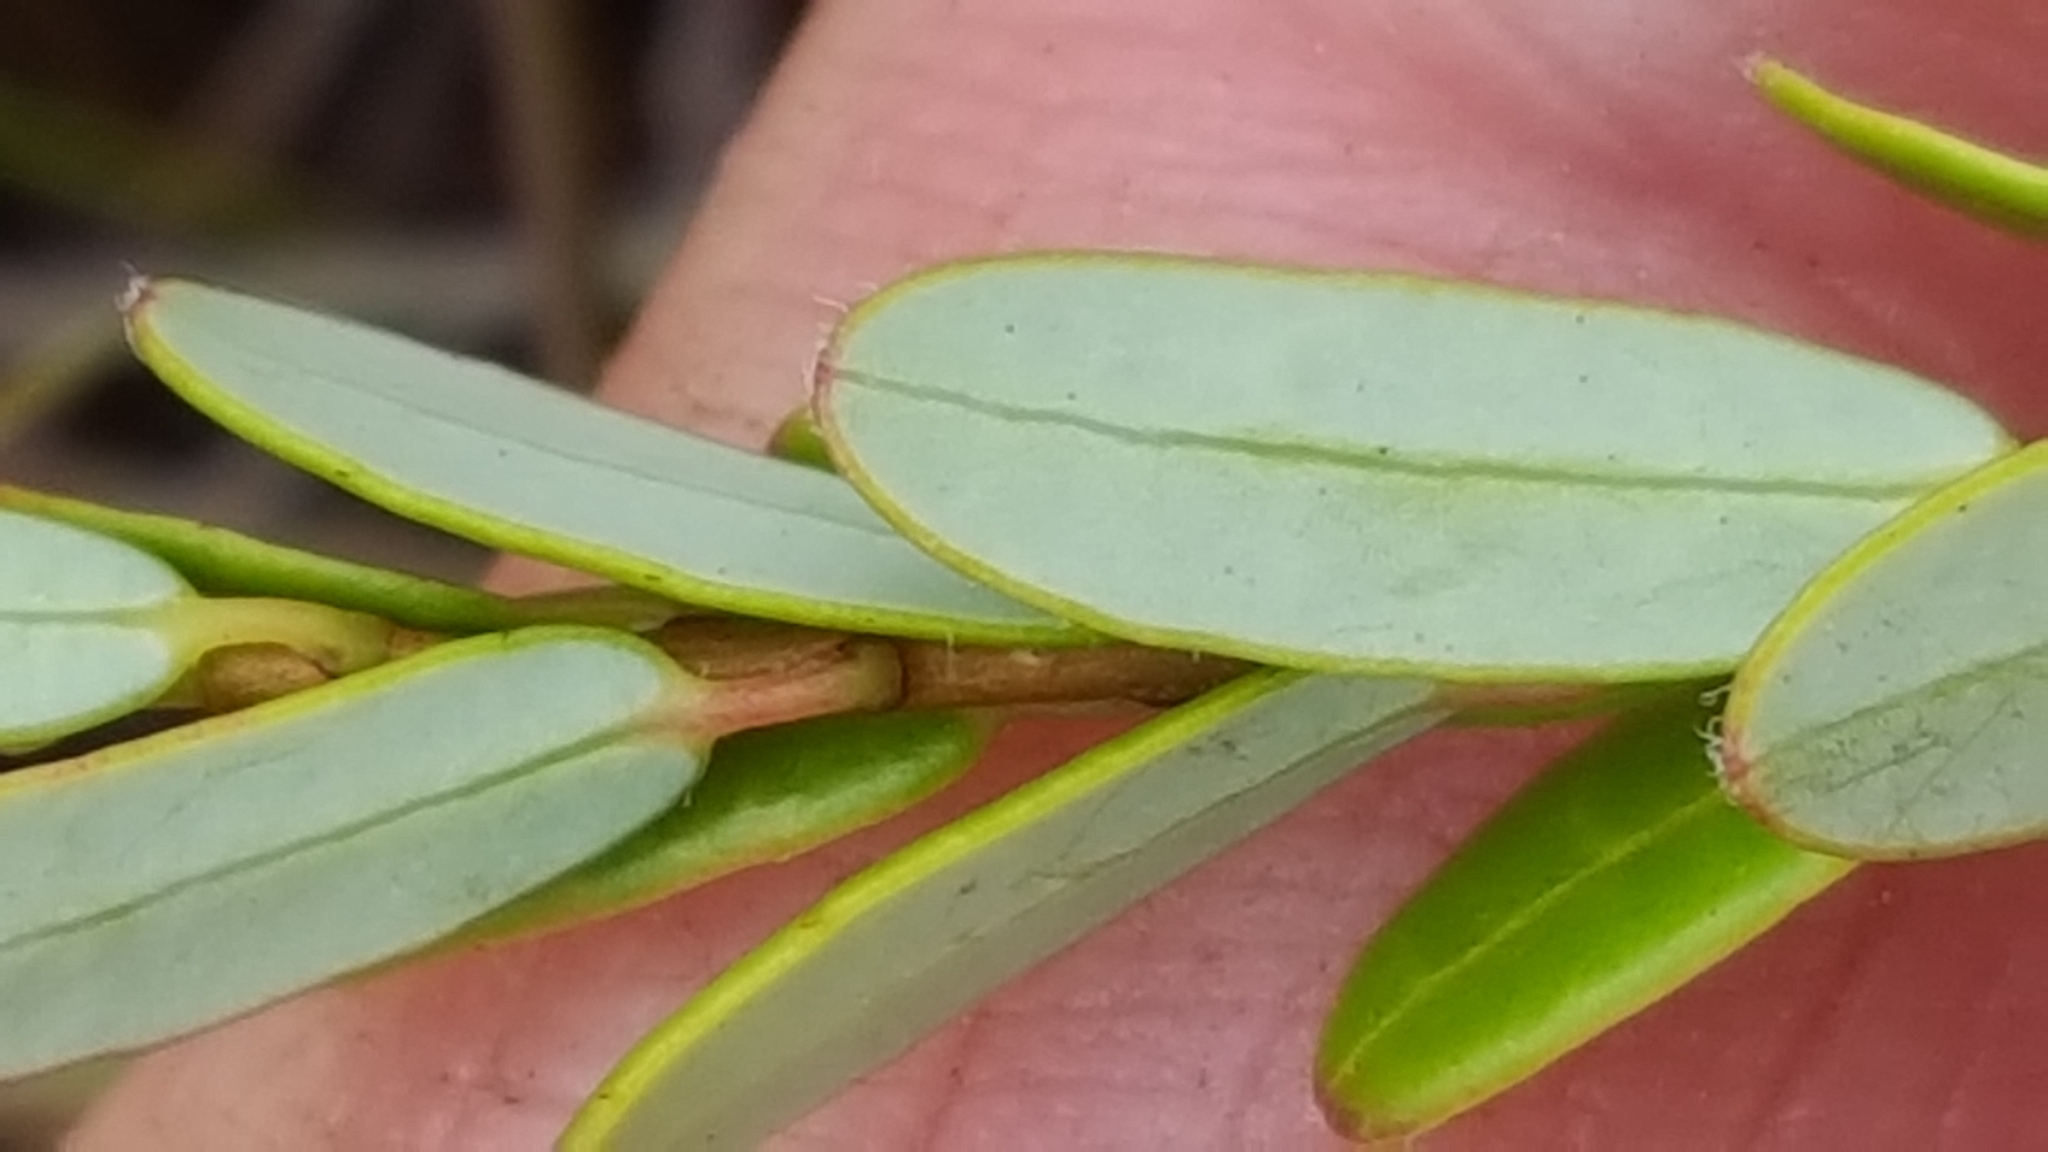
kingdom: Plantae
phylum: Tracheophyta
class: Magnoliopsida
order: Ericales
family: Ericaceae
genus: Vaccinium
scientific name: Vaccinium macrocarpon
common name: American cranberry
